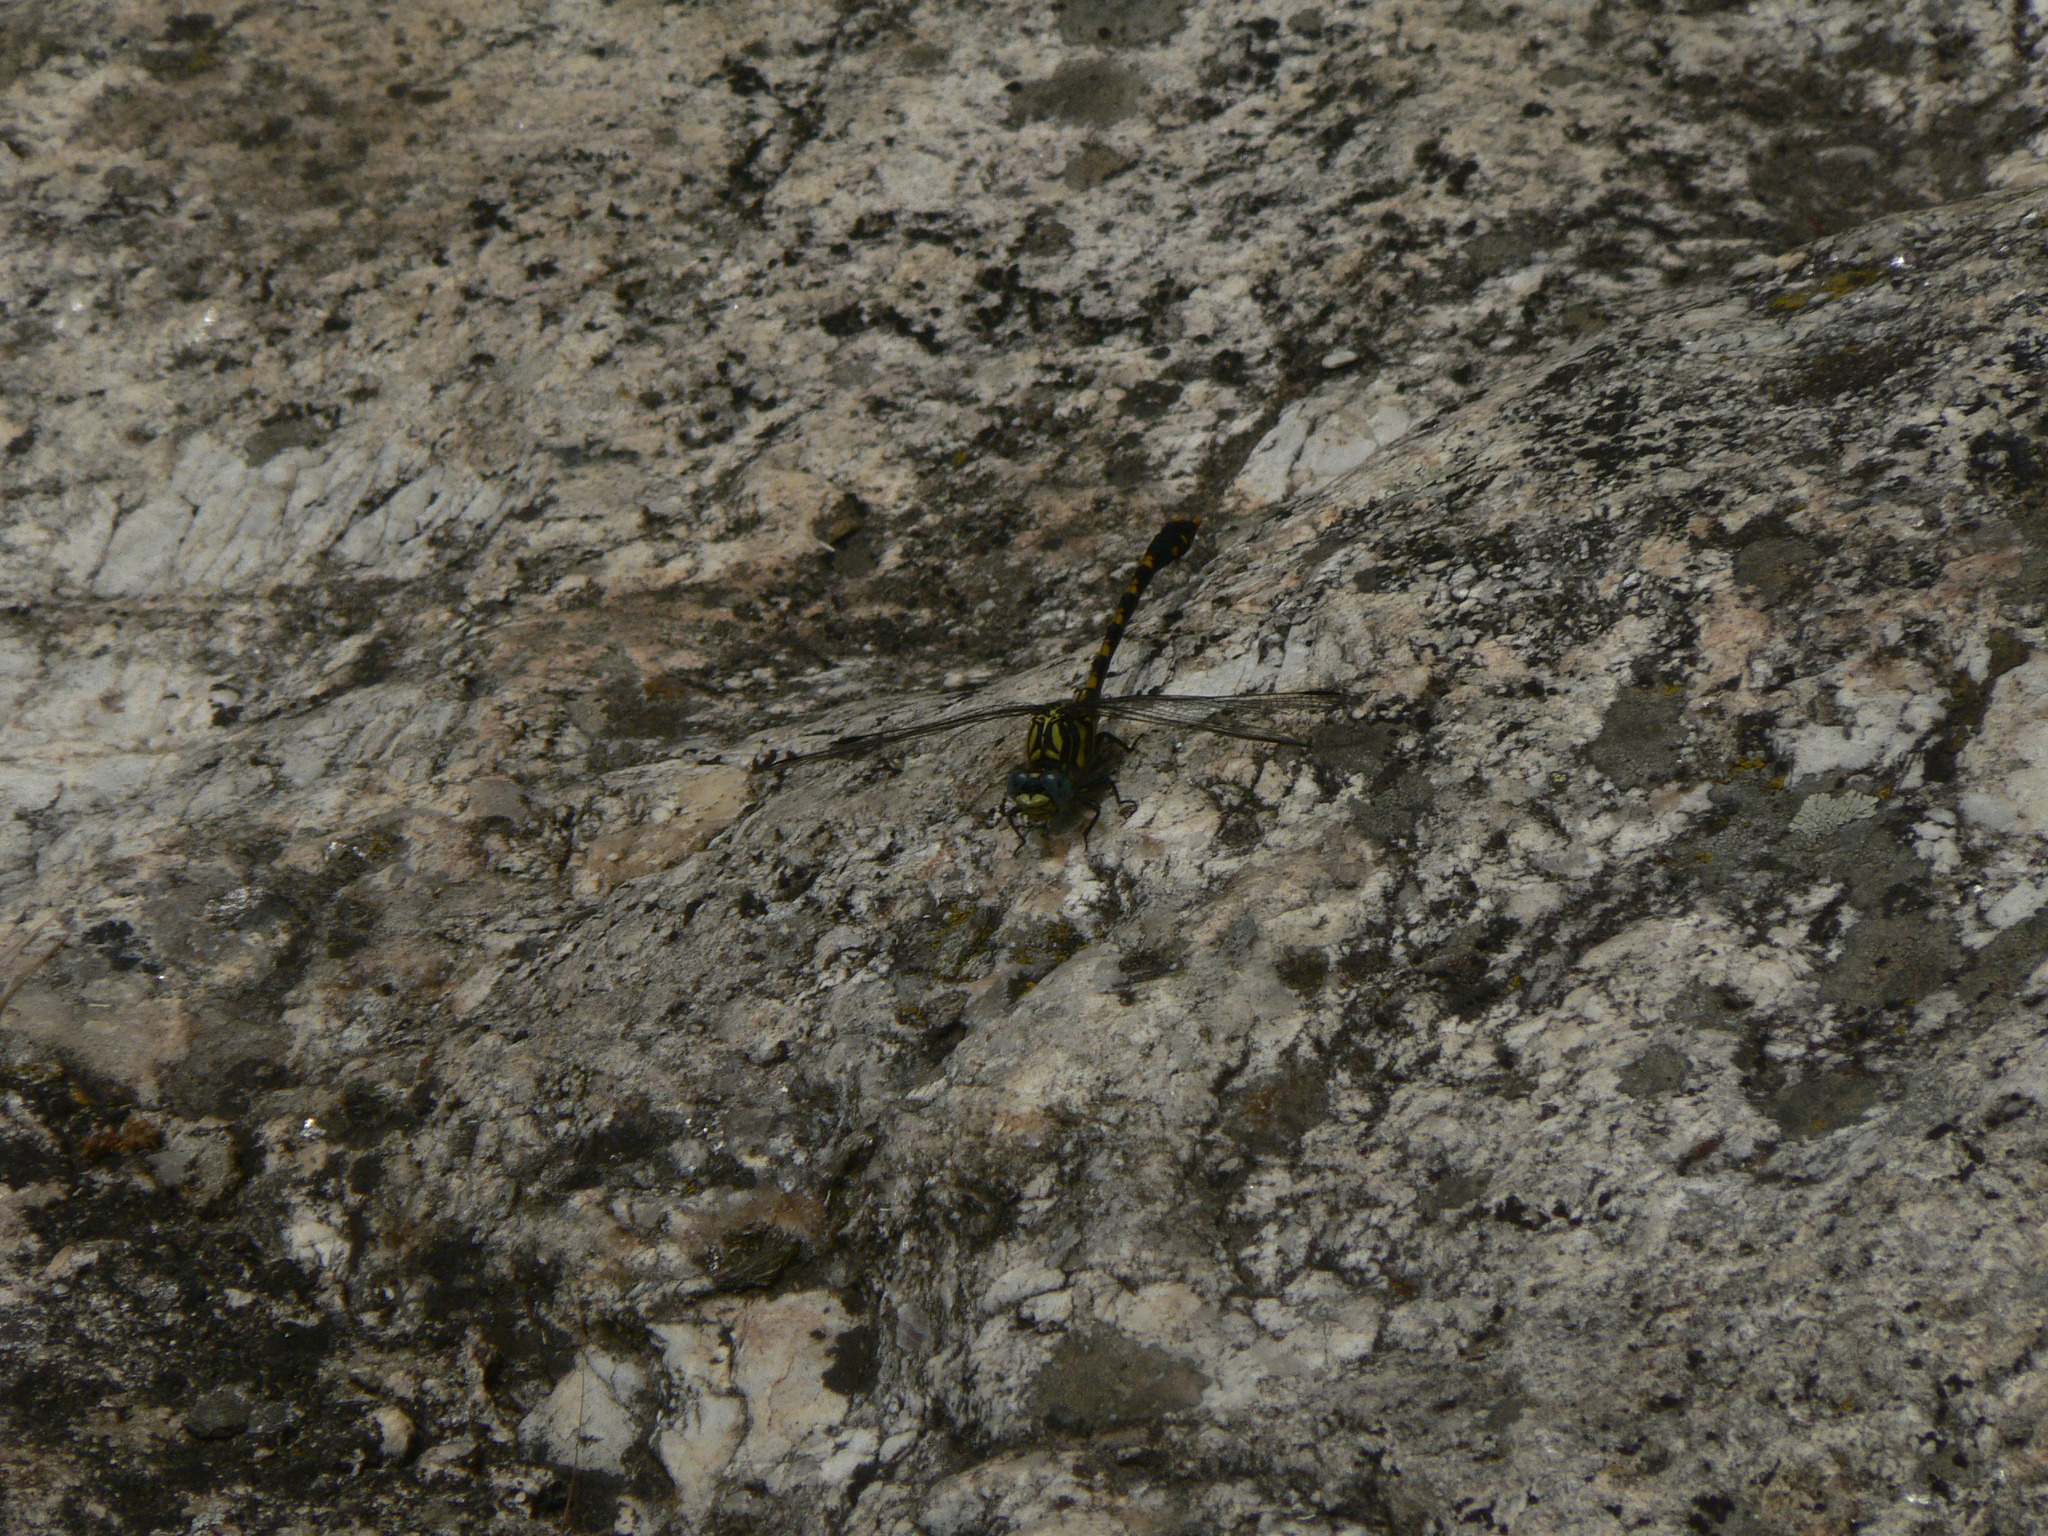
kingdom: Animalia
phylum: Arthropoda
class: Insecta
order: Odonata
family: Gomphidae
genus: Onychogomphus
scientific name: Onychogomphus uncatus
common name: Large pincertail
